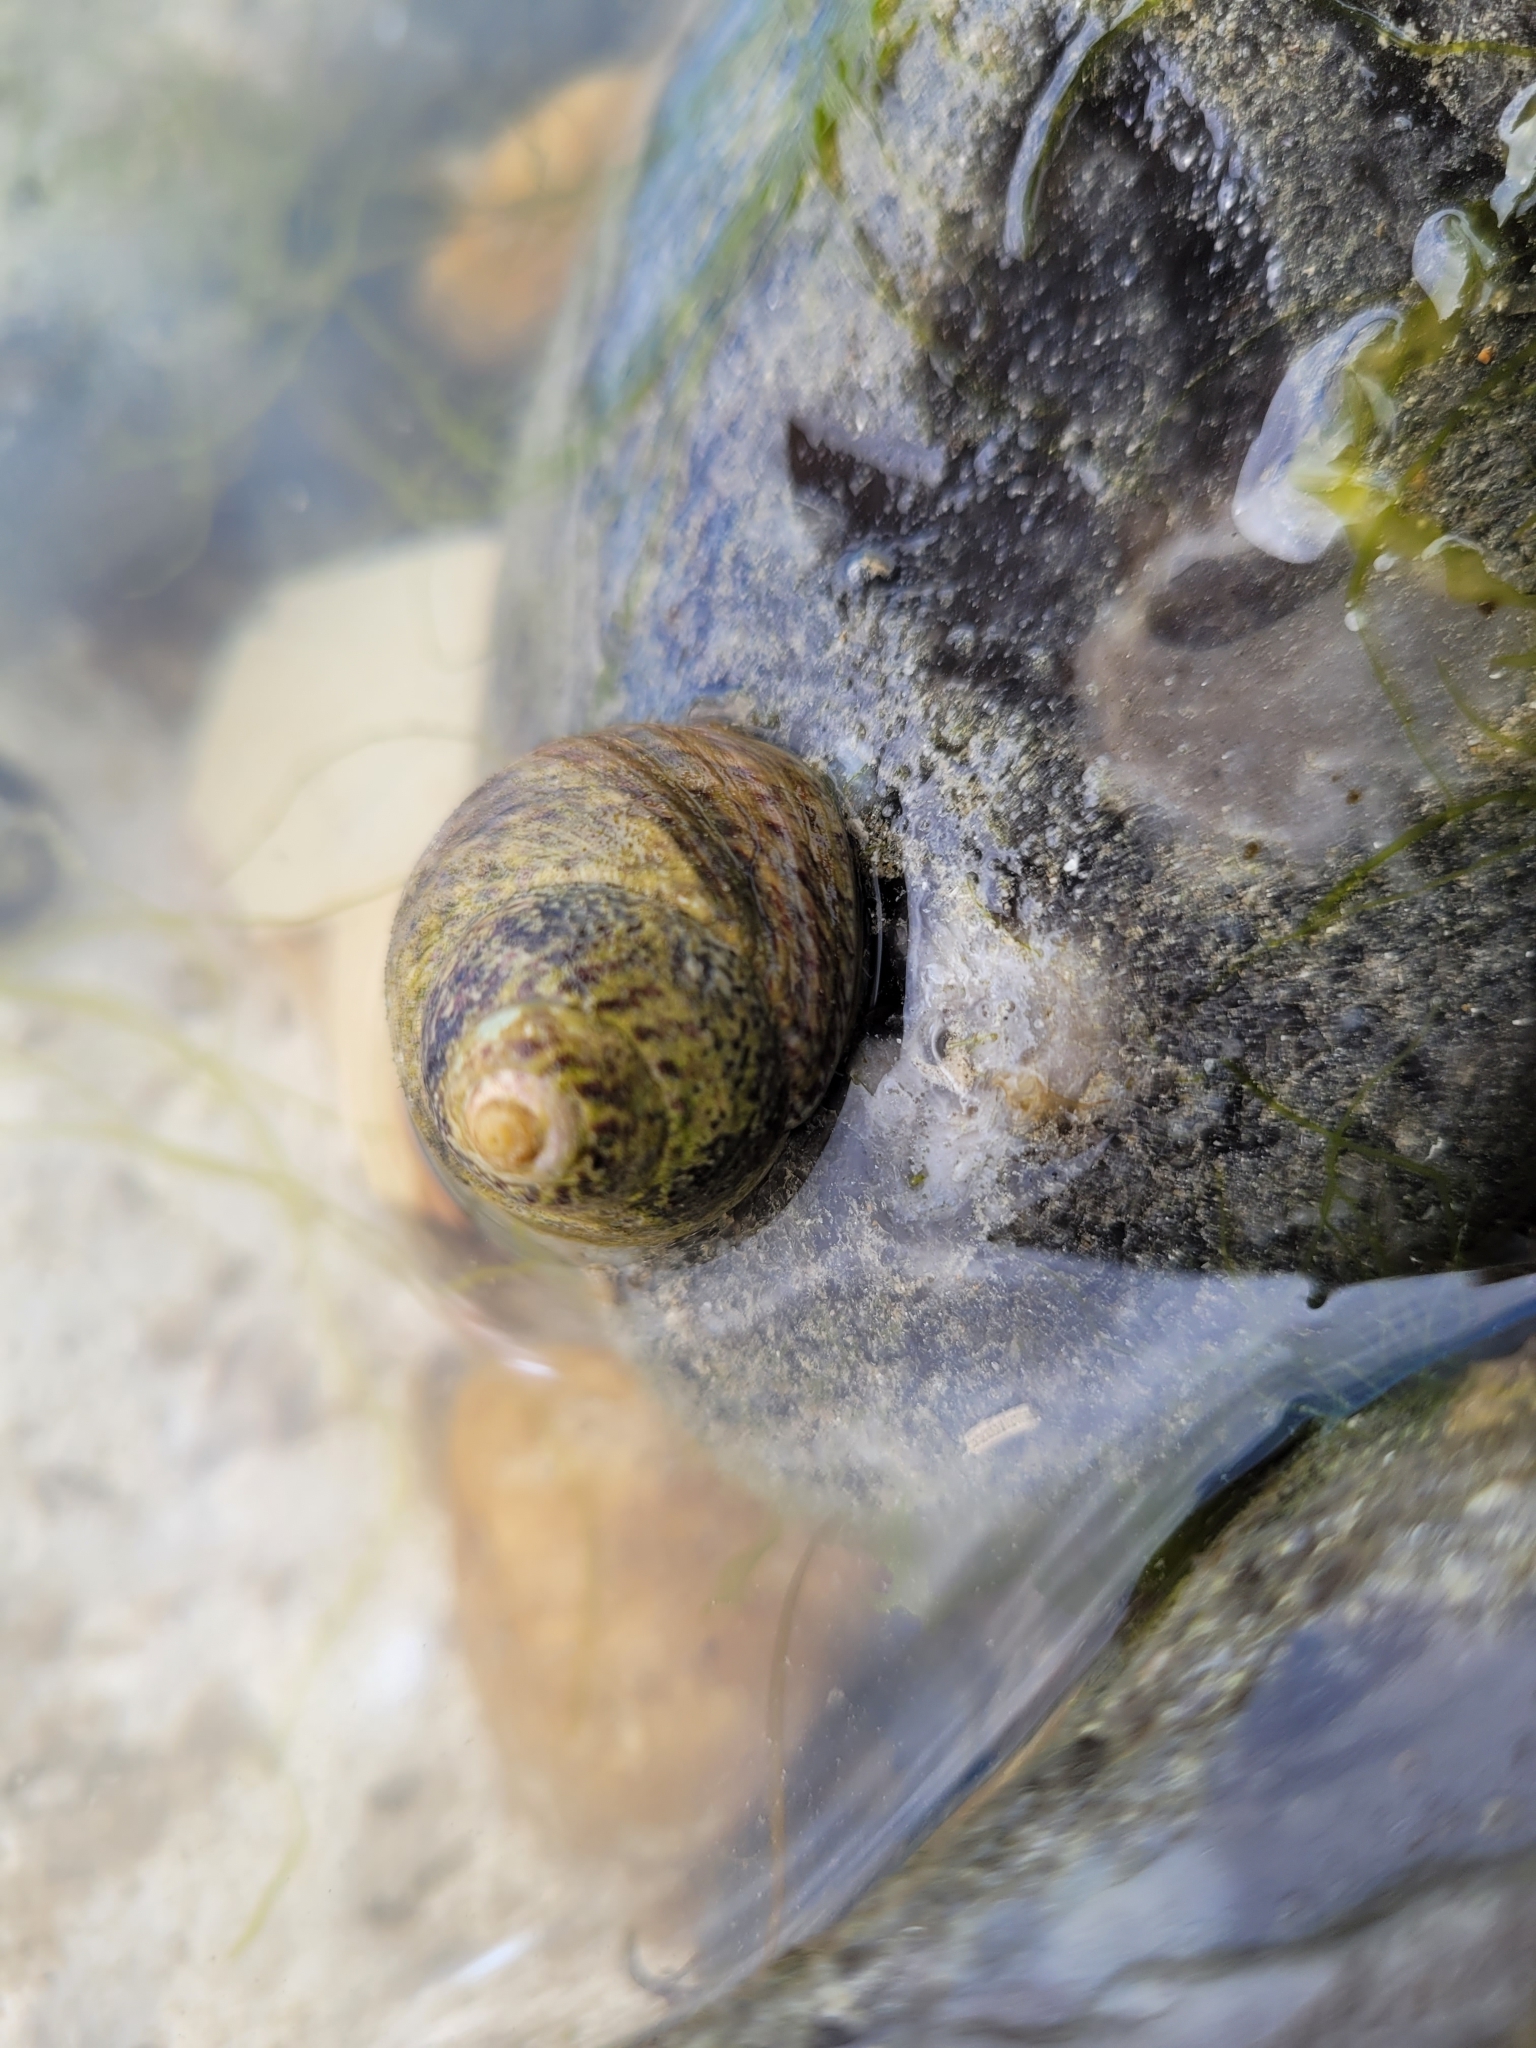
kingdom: Animalia
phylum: Mollusca
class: Gastropoda
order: Trochida
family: Trochidae
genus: Phorcus
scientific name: Phorcus lineatus
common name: Toothed top shell
